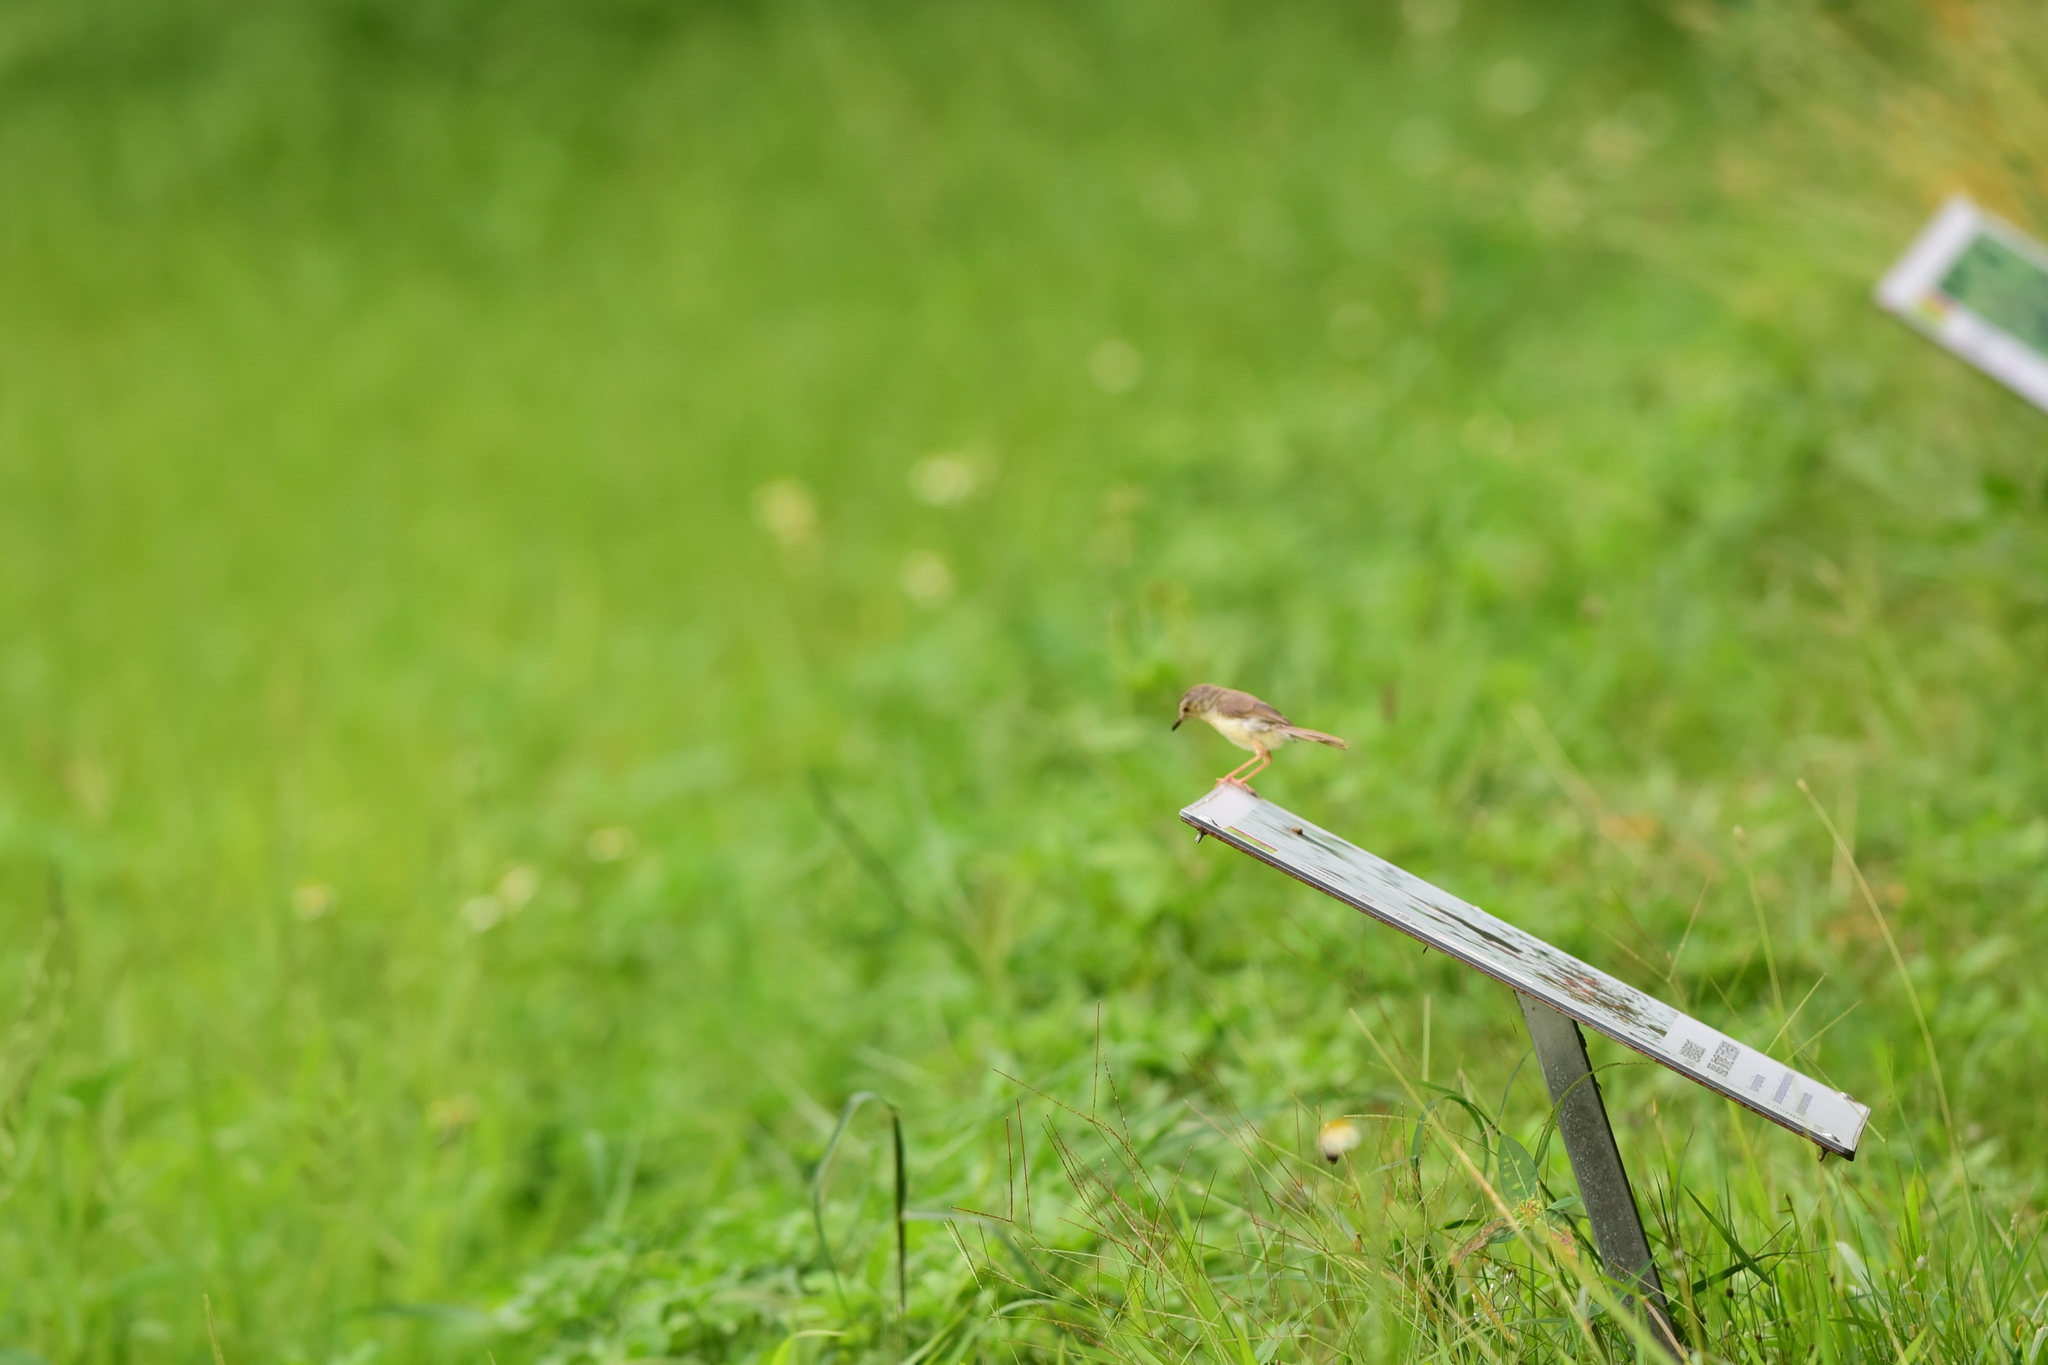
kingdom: Animalia
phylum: Chordata
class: Aves
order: Passeriformes
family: Cisticolidae
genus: Prinia
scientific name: Prinia inornata
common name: Plain prinia
